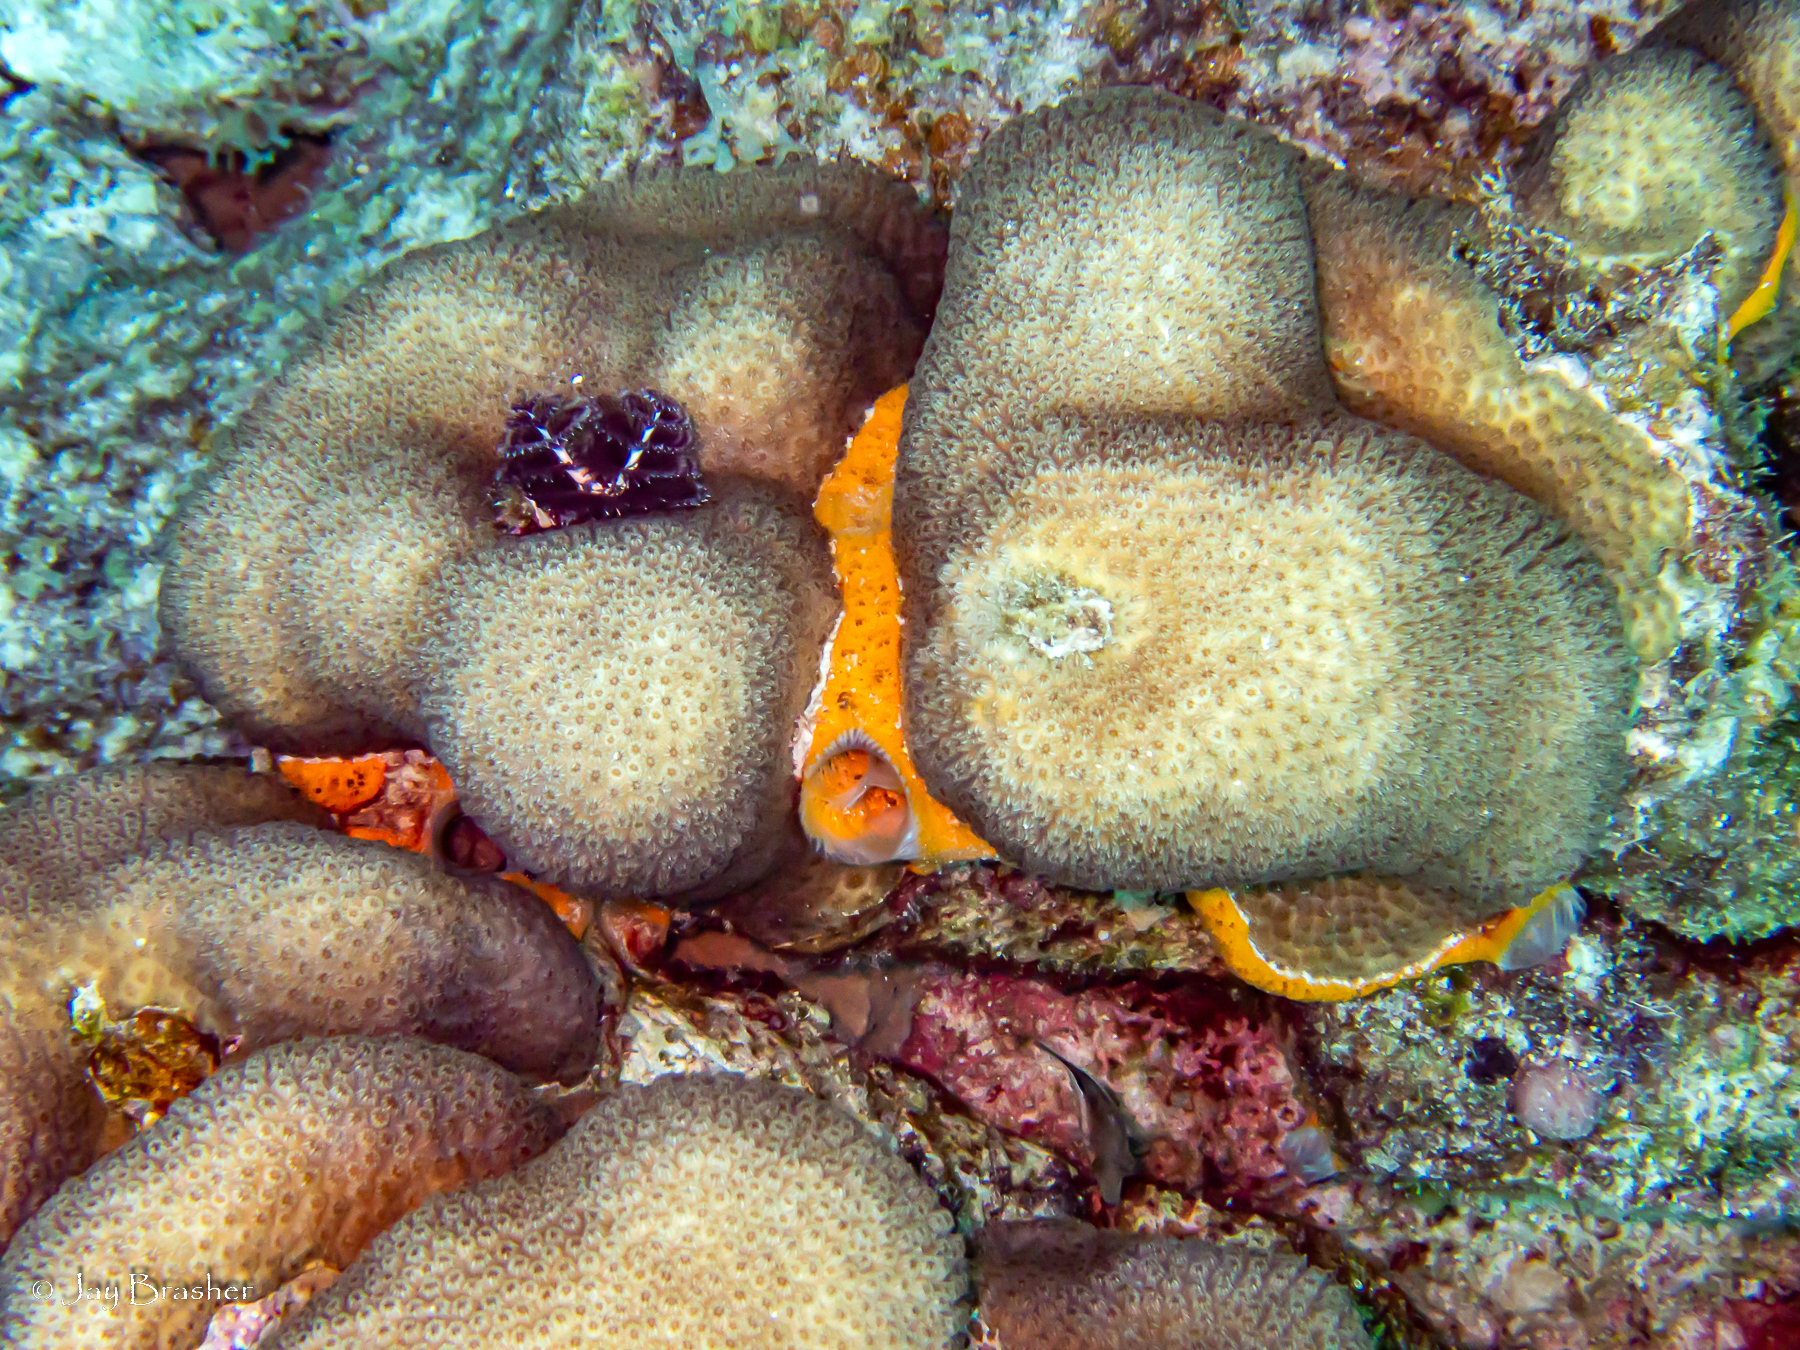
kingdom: Animalia
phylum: Porifera
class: Demospongiae
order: Poecilosclerida
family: Mycalidae
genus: Mycale
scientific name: Mycale laevis
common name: Orange icing sponge
